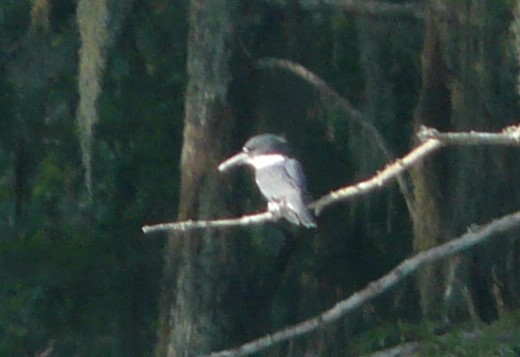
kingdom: Animalia
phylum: Chordata
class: Aves
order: Coraciiformes
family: Alcedinidae
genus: Megaceryle
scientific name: Megaceryle alcyon
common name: Belted kingfisher
